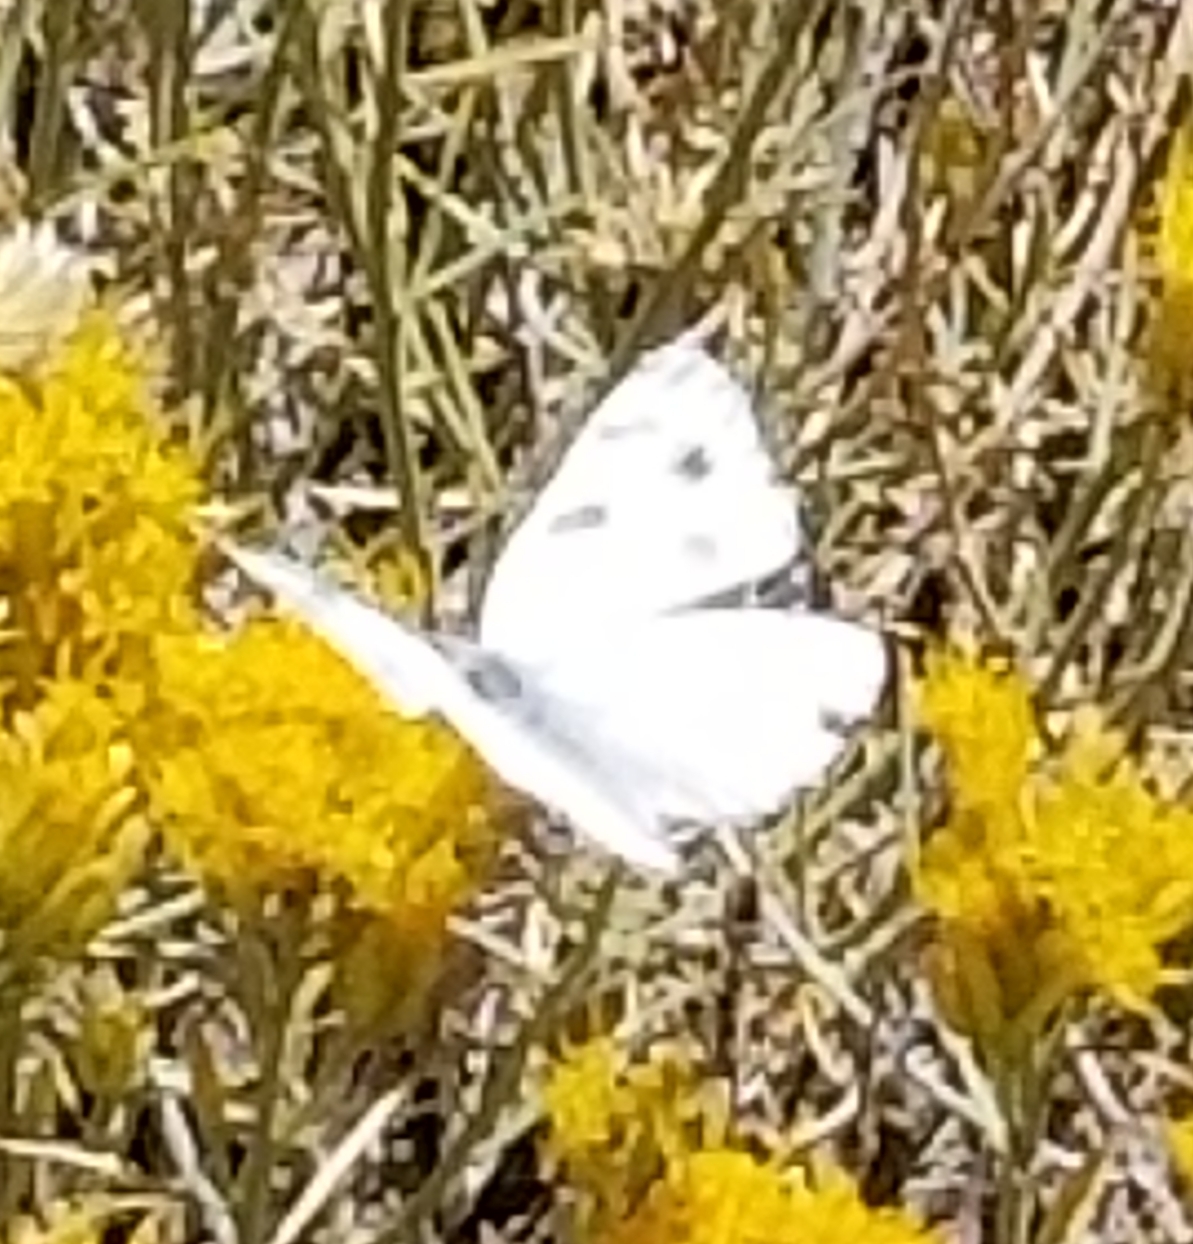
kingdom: Animalia
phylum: Arthropoda
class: Insecta
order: Lepidoptera
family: Pieridae
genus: Pontia
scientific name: Pontia protodice
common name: Checkered white
